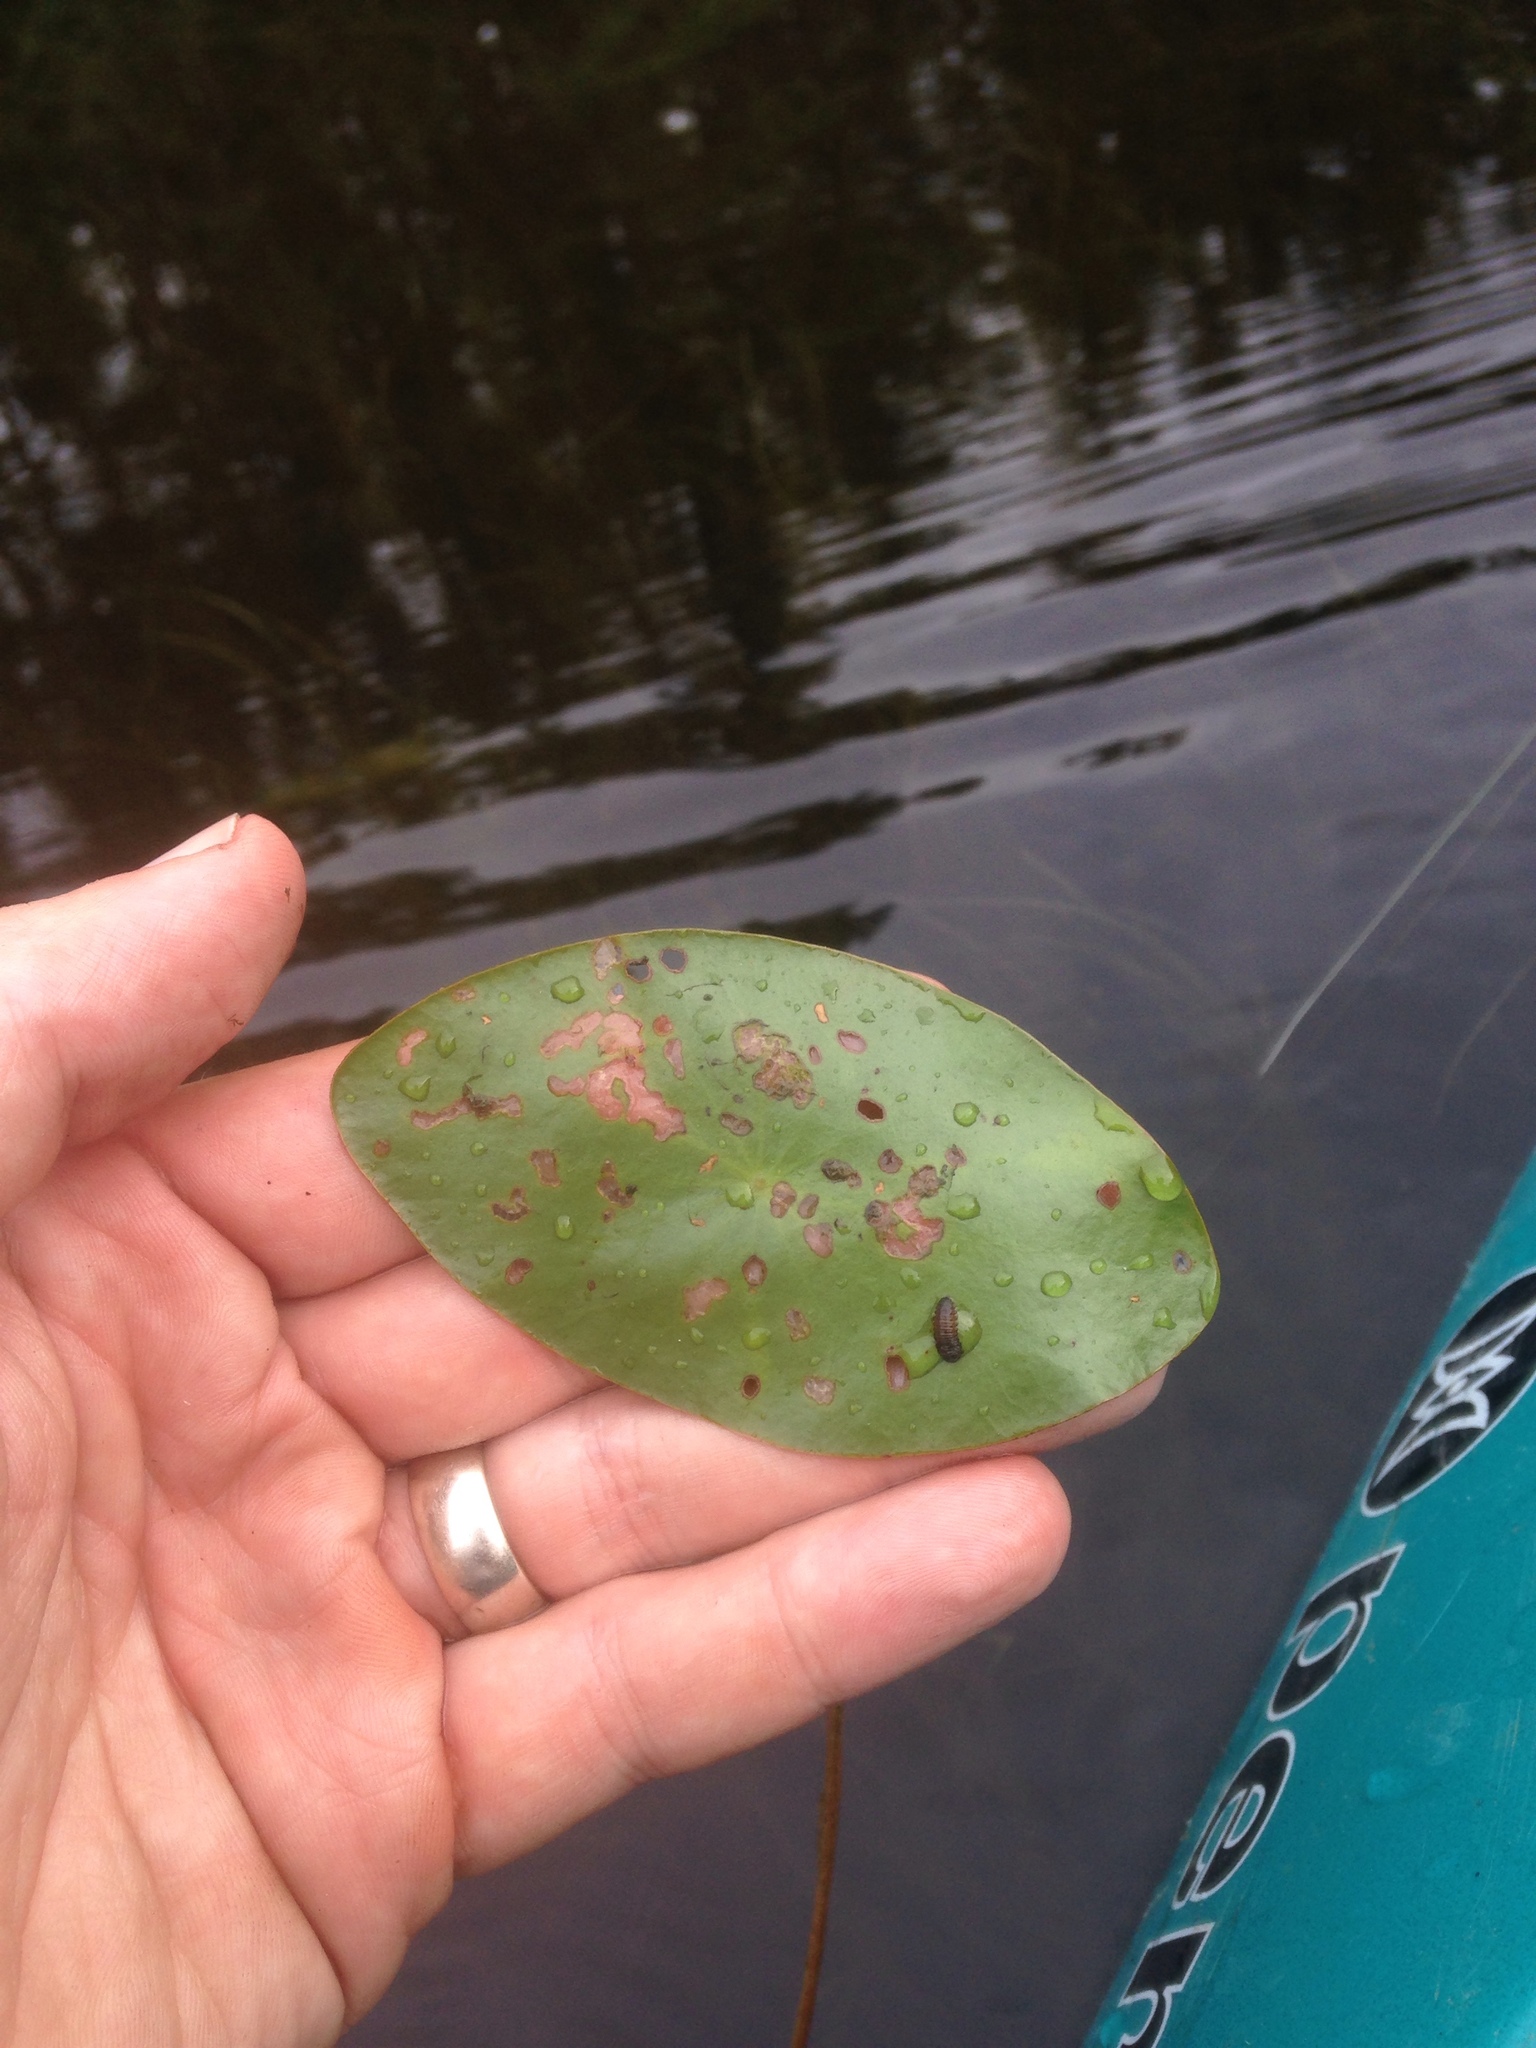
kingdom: Plantae
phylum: Tracheophyta
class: Magnoliopsida
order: Nymphaeales
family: Cabombaceae
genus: Brasenia
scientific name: Brasenia schreberi
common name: Water-shield
